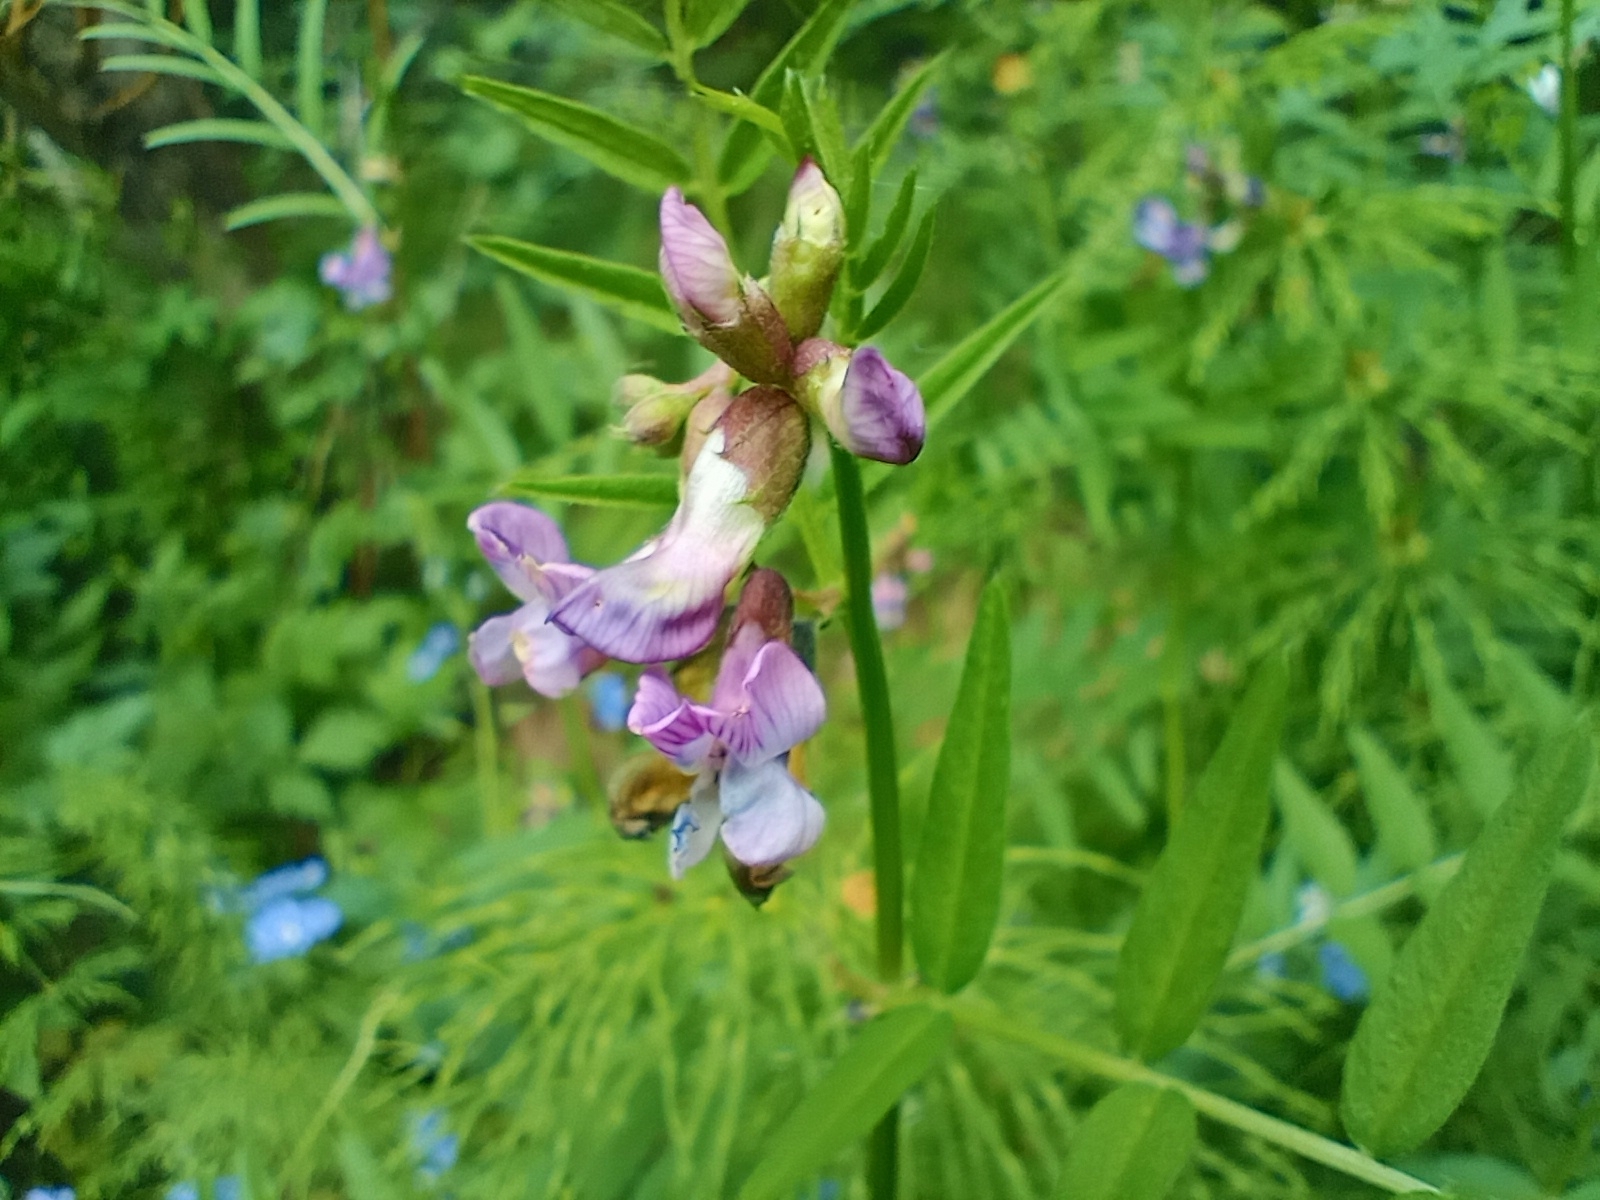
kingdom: Plantae
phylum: Tracheophyta
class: Magnoliopsida
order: Fabales
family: Fabaceae
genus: Vicia
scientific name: Vicia sepium
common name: Bush vetch
